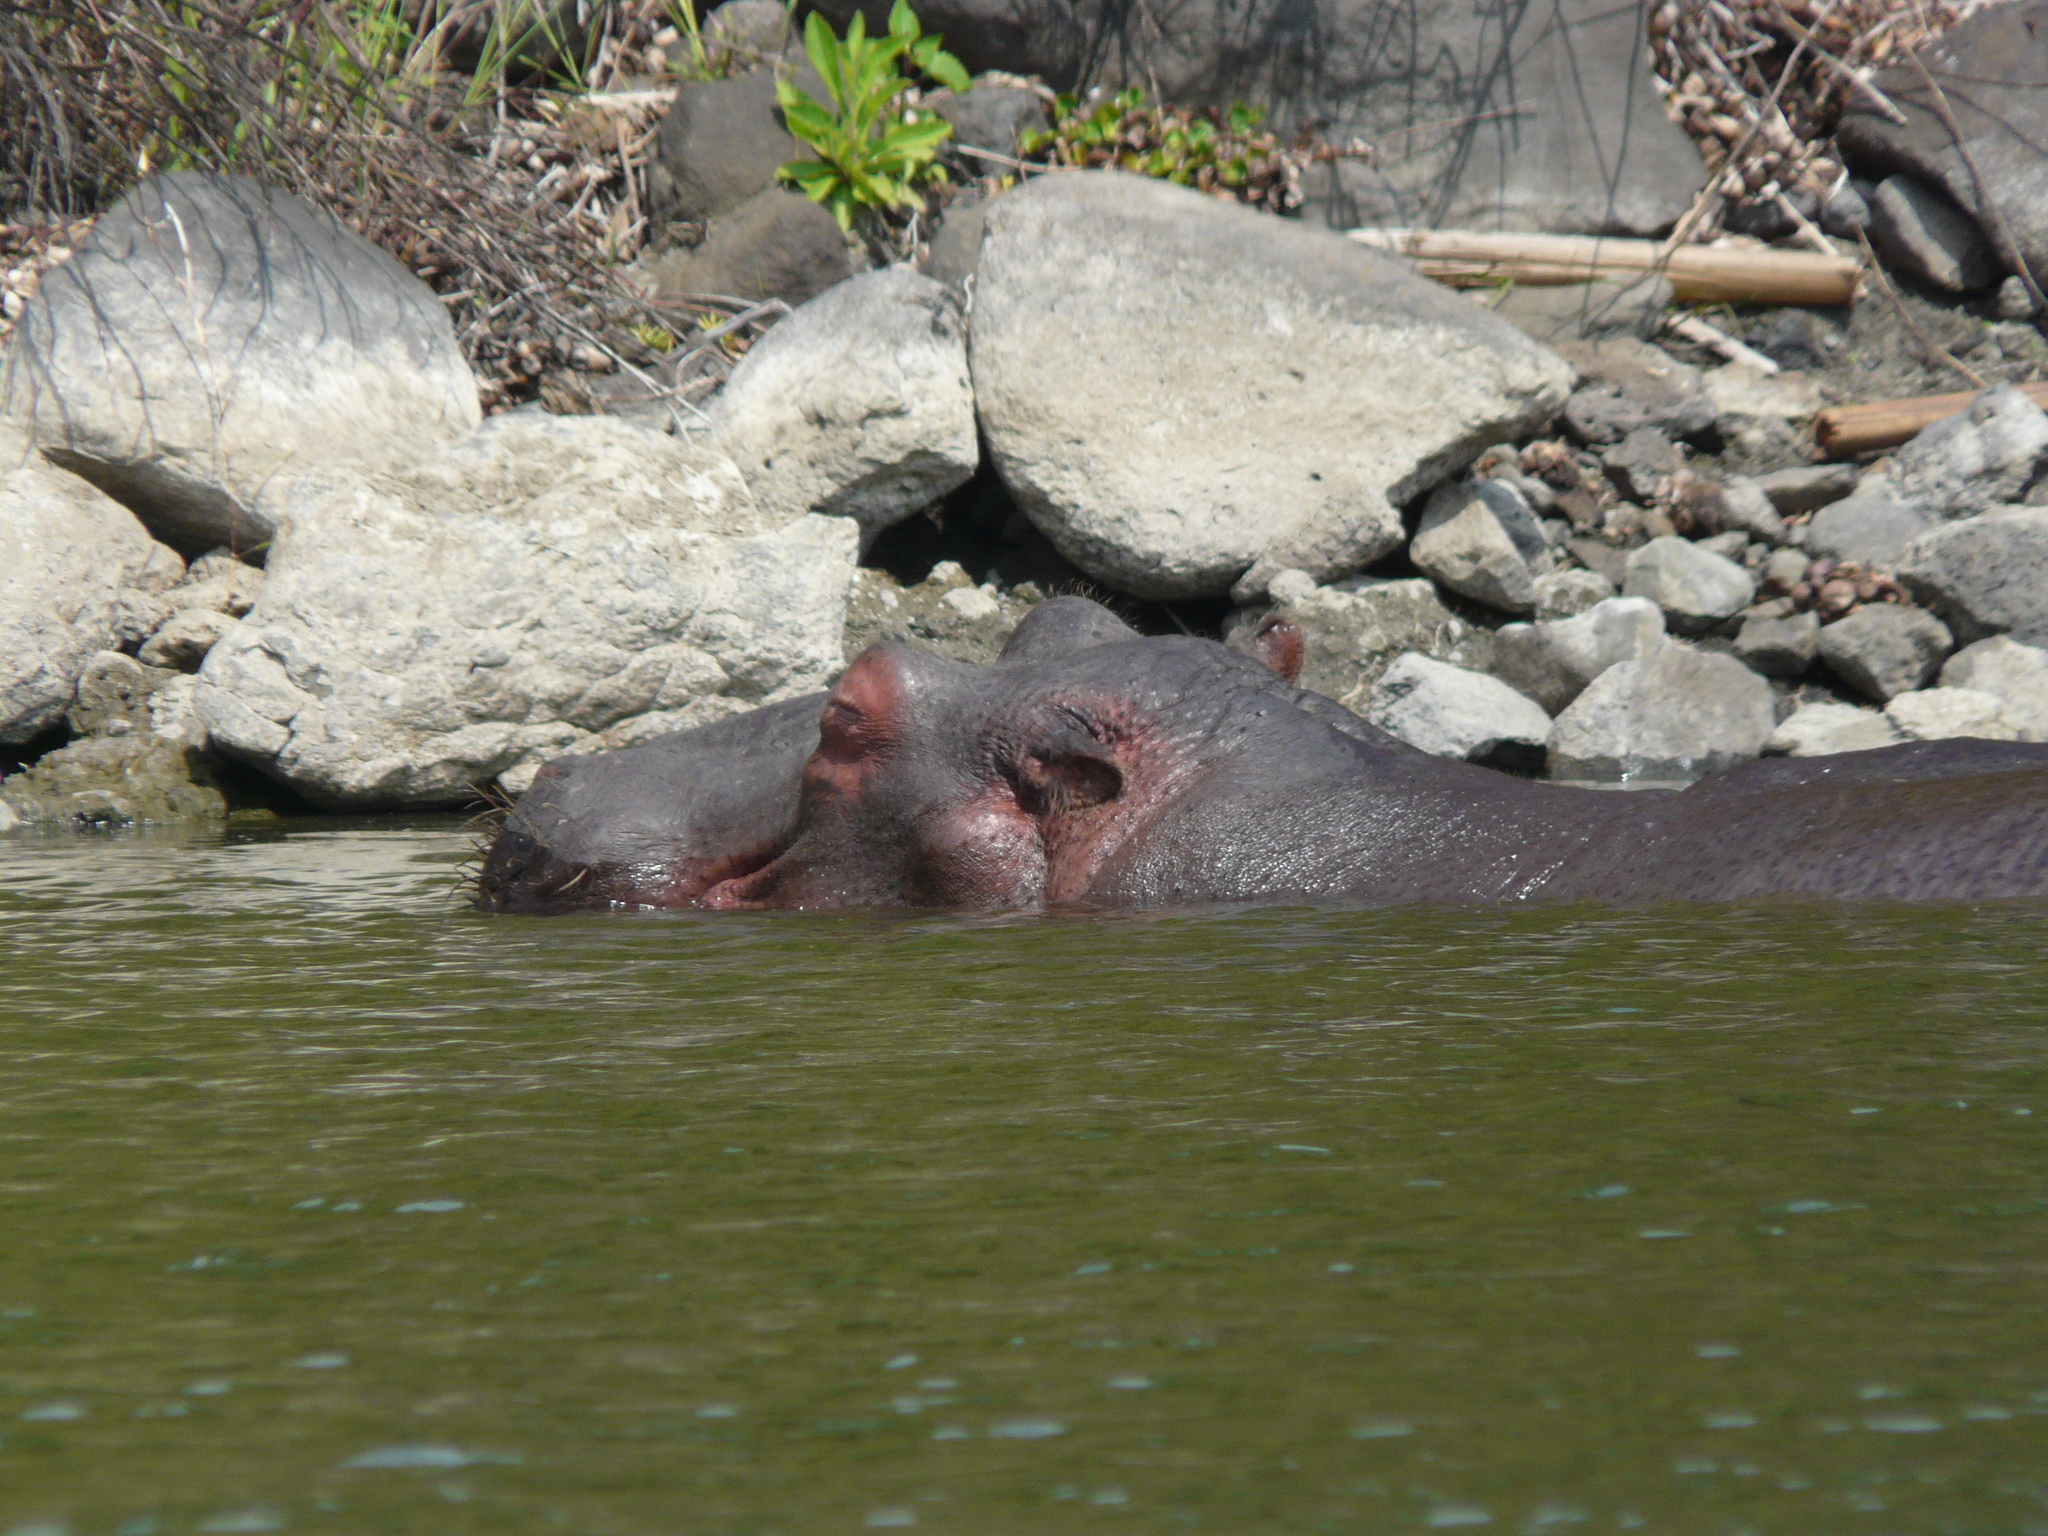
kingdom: Animalia
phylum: Chordata
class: Mammalia
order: Artiodactyla
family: Hippopotamidae
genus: Hippopotamus
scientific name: Hippopotamus amphibius
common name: Common hippopotamus
